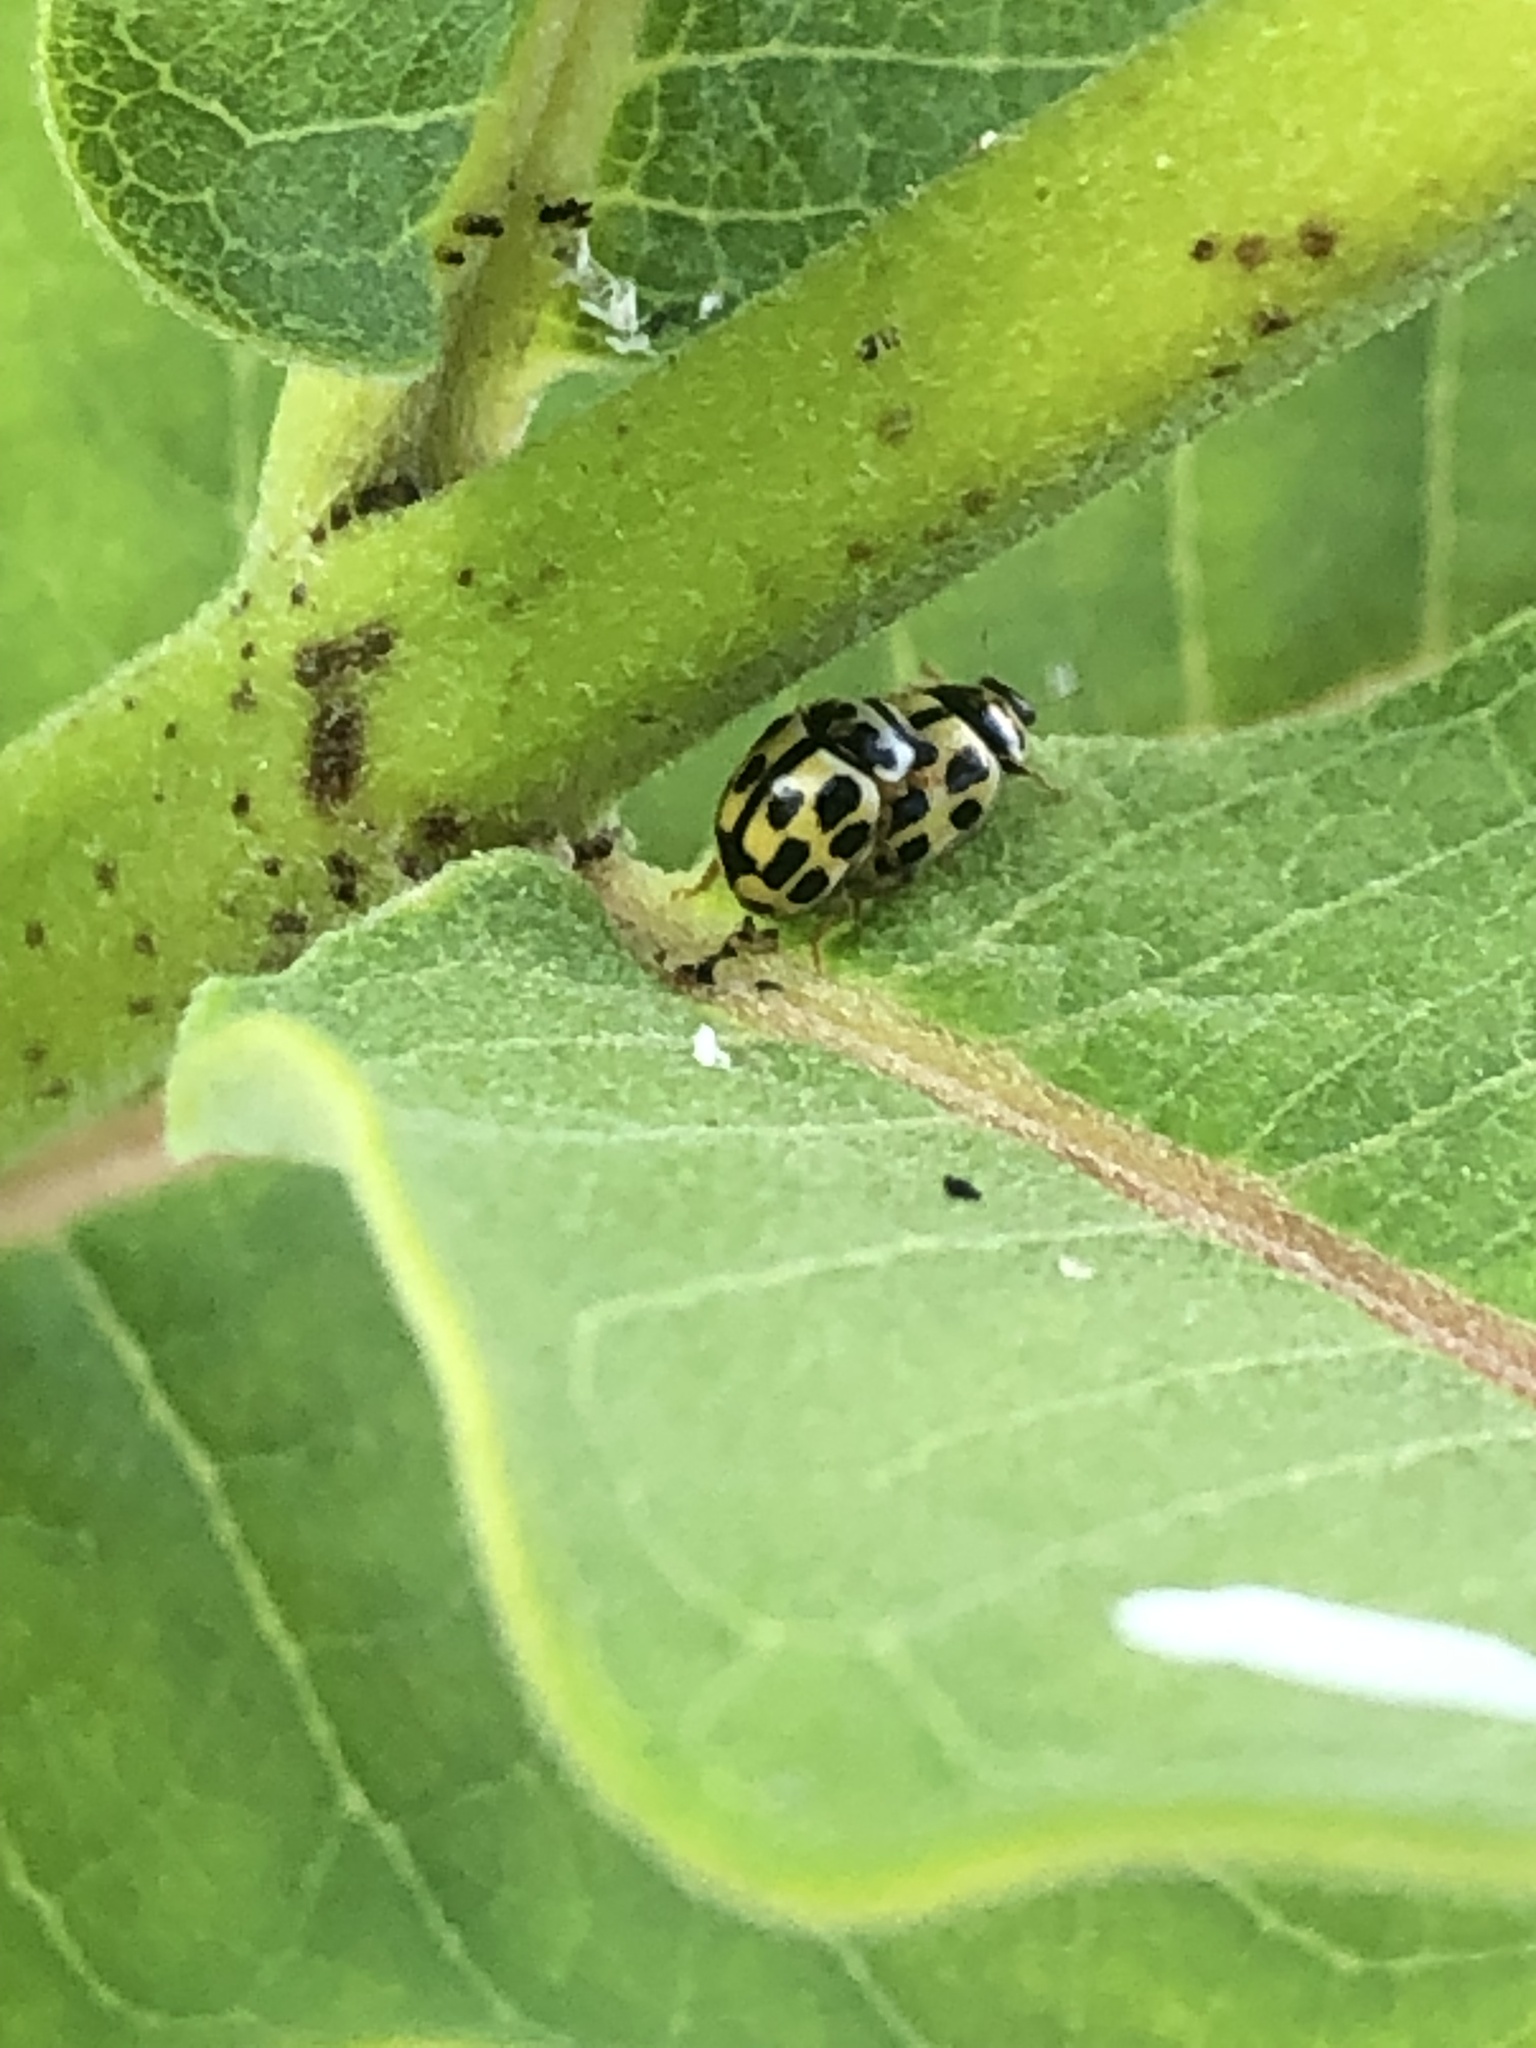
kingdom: Animalia
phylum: Arthropoda
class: Insecta
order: Coleoptera
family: Coccinellidae
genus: Propylaea
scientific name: Propylaea quatuordecimpunctata
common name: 14-spotted ladybird beetle
